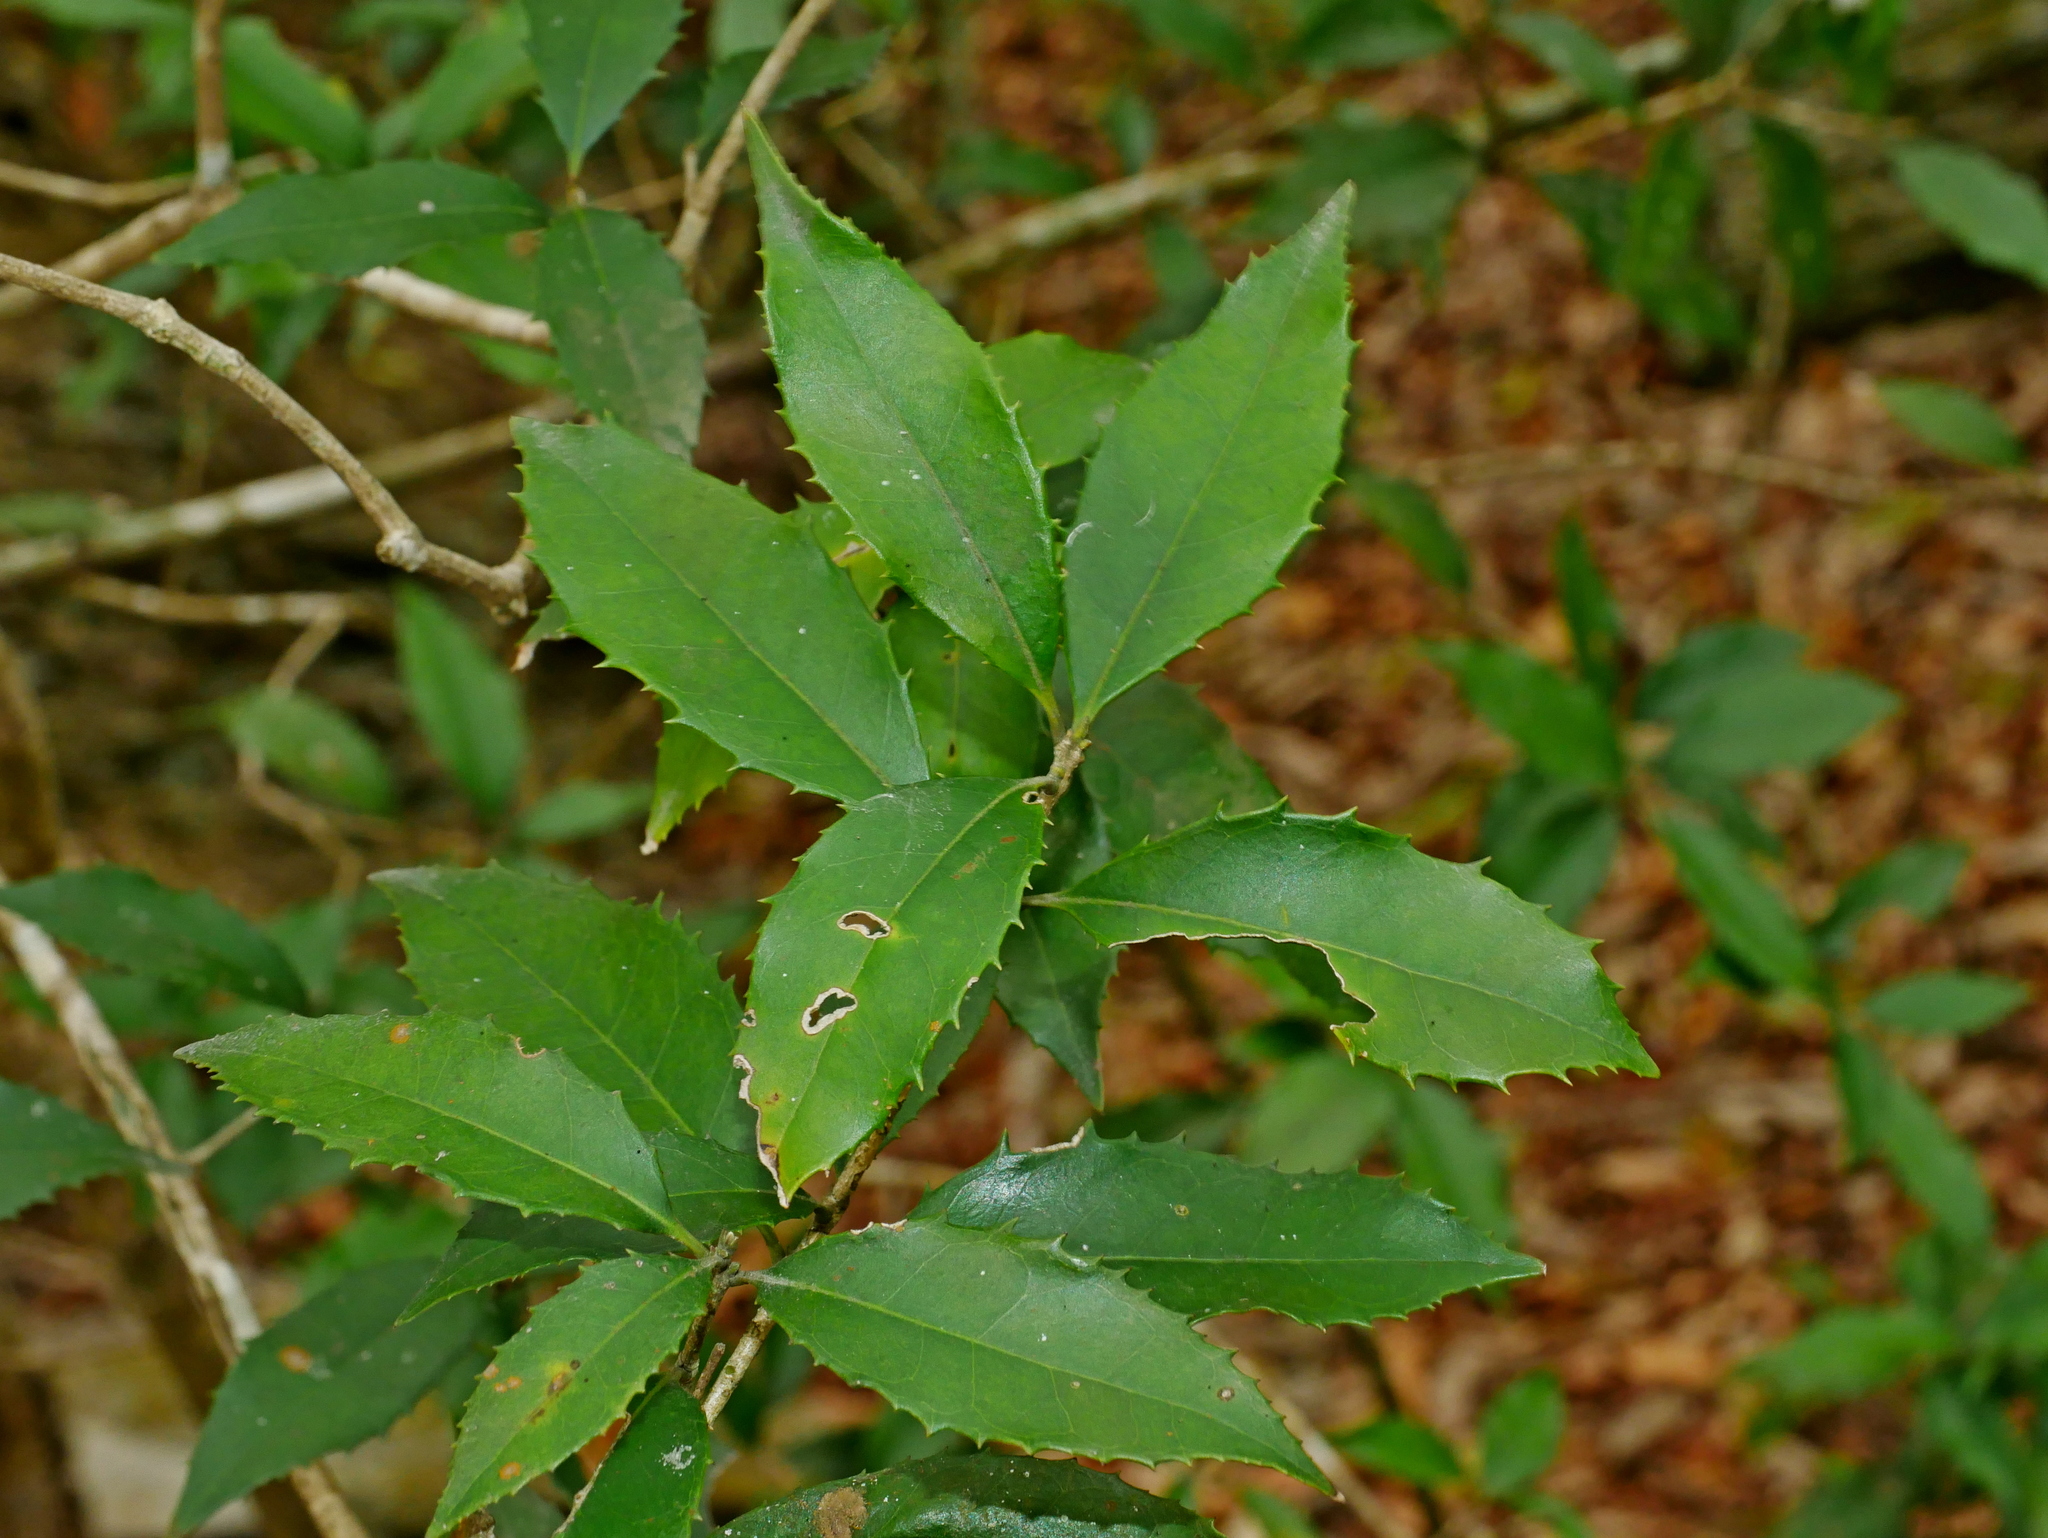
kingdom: Plantae
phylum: Tracheophyta
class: Magnoliopsida
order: Lamiales
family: Oleaceae
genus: Osmanthus
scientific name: Osmanthus enervius
